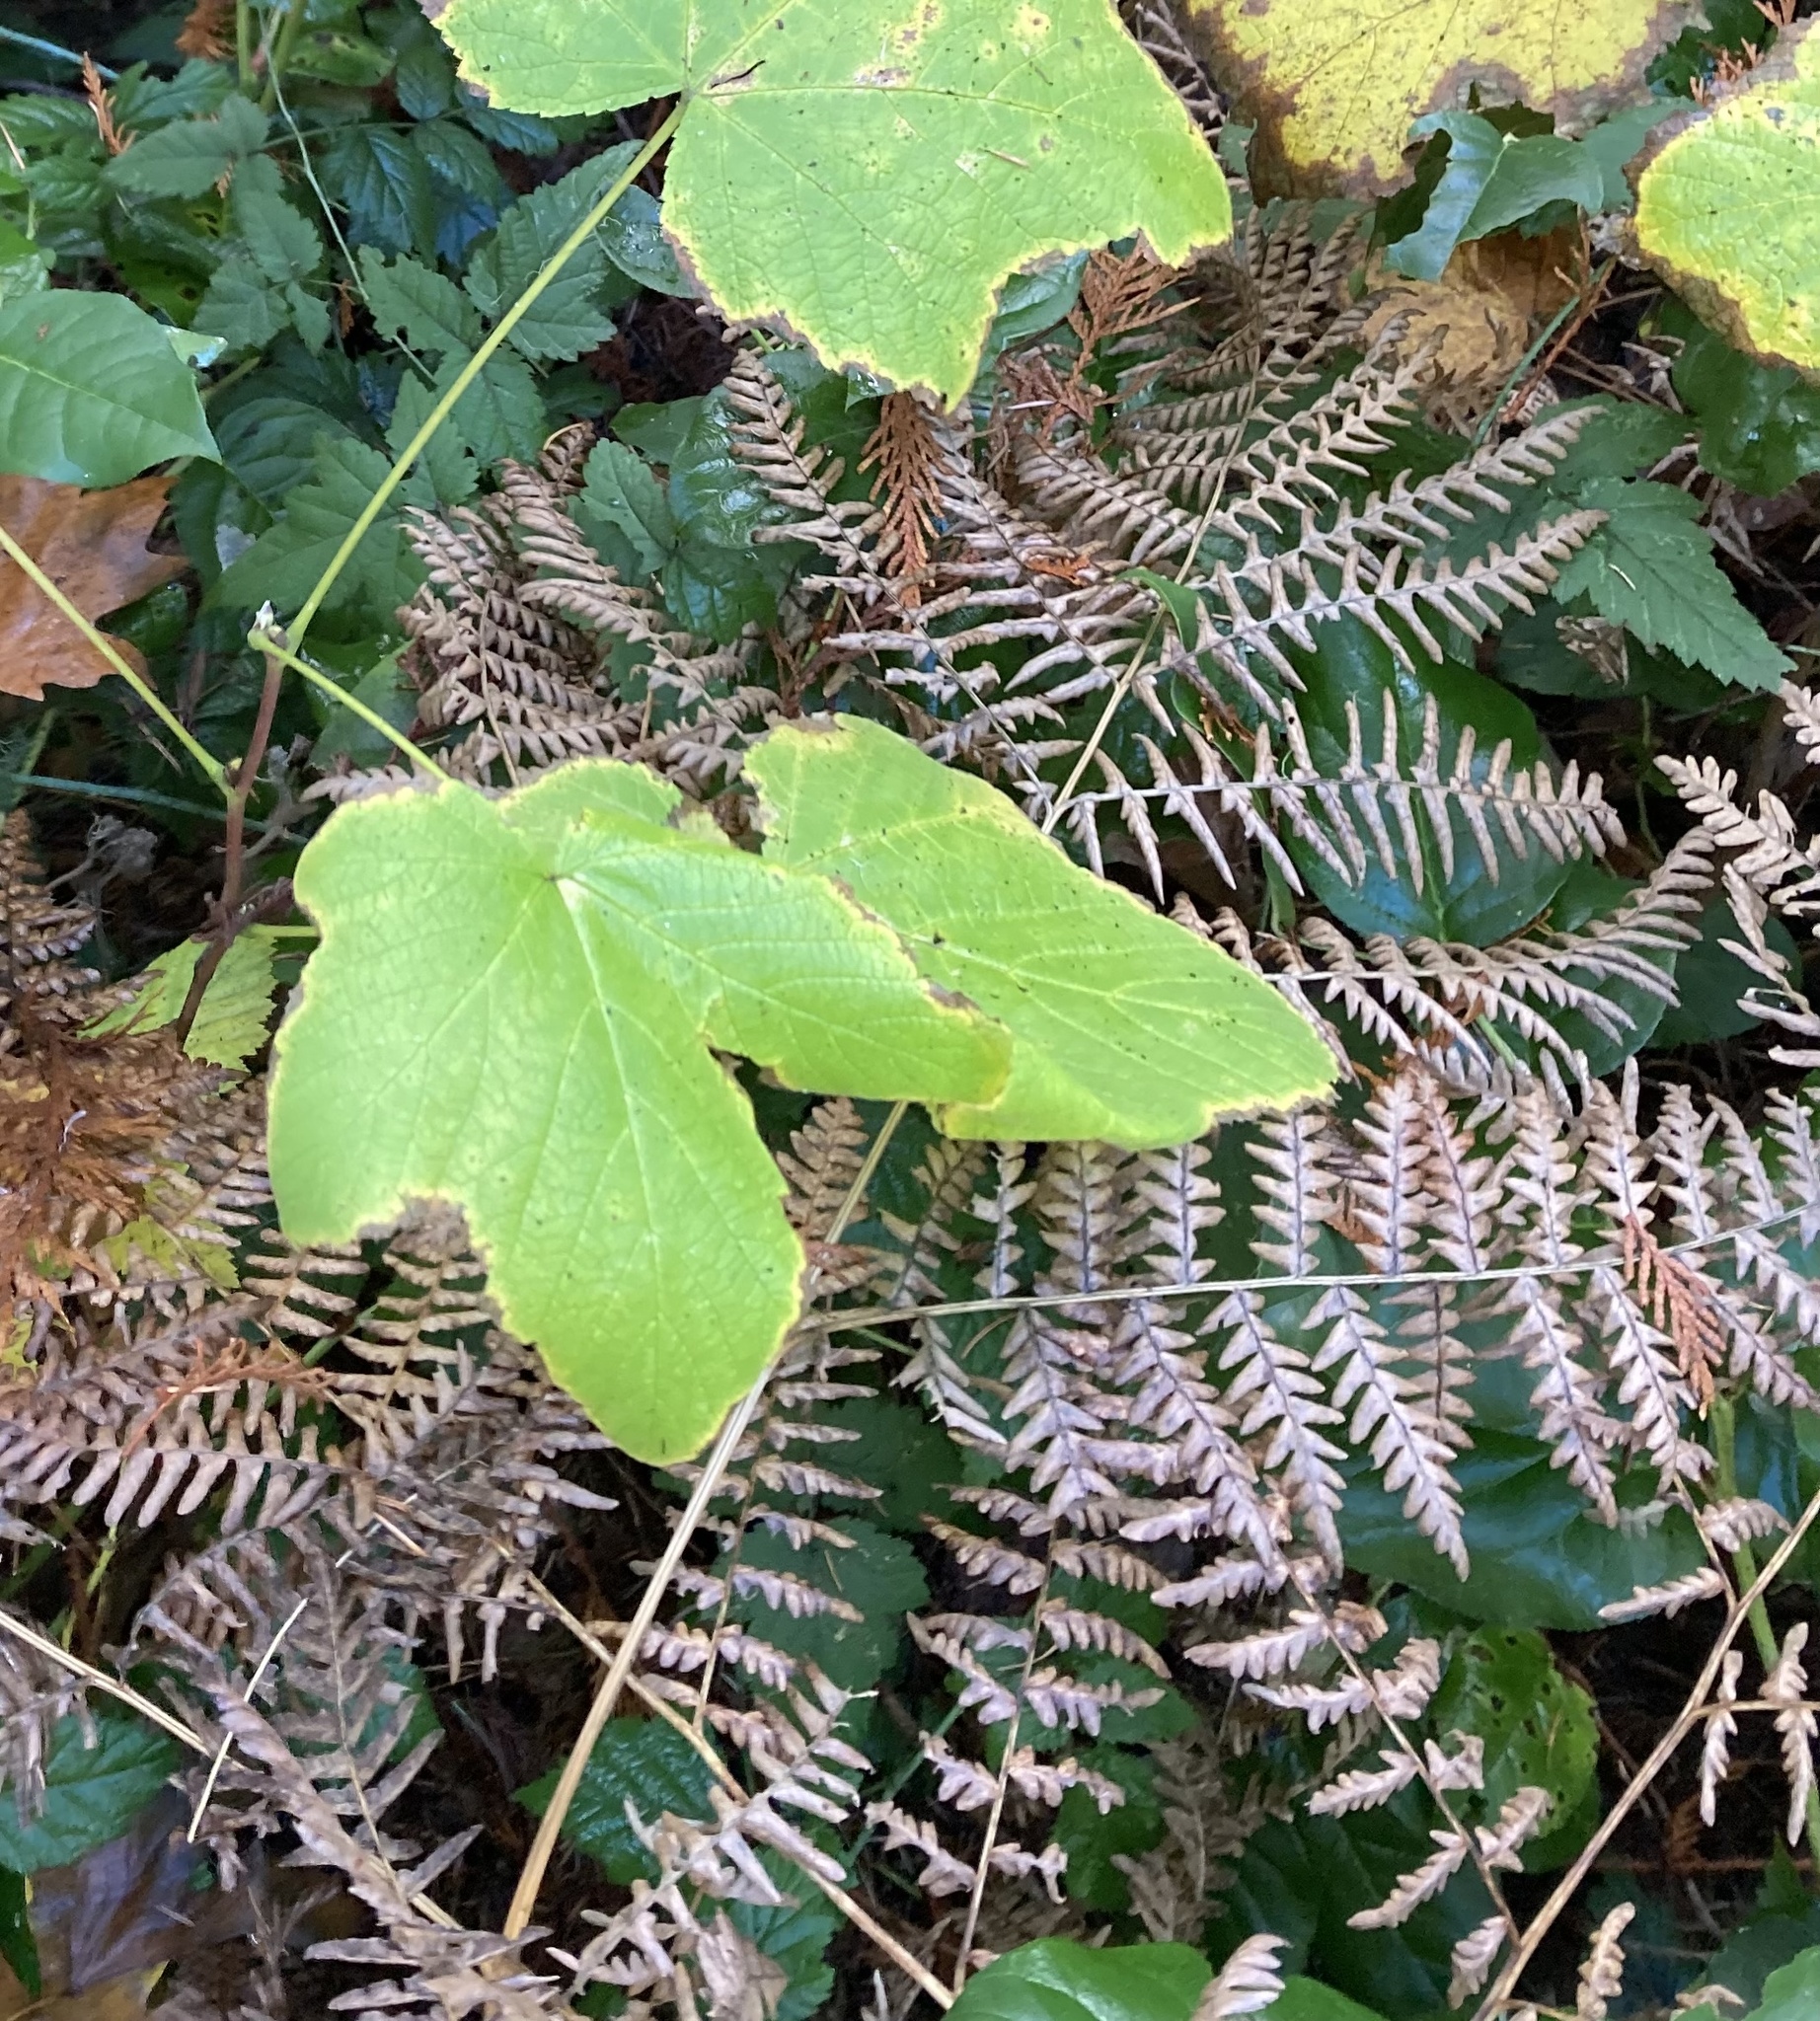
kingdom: Plantae
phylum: Tracheophyta
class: Polypodiopsida
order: Polypodiales
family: Dennstaedtiaceae
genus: Pteridium
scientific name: Pteridium aquilinum
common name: Bracken
